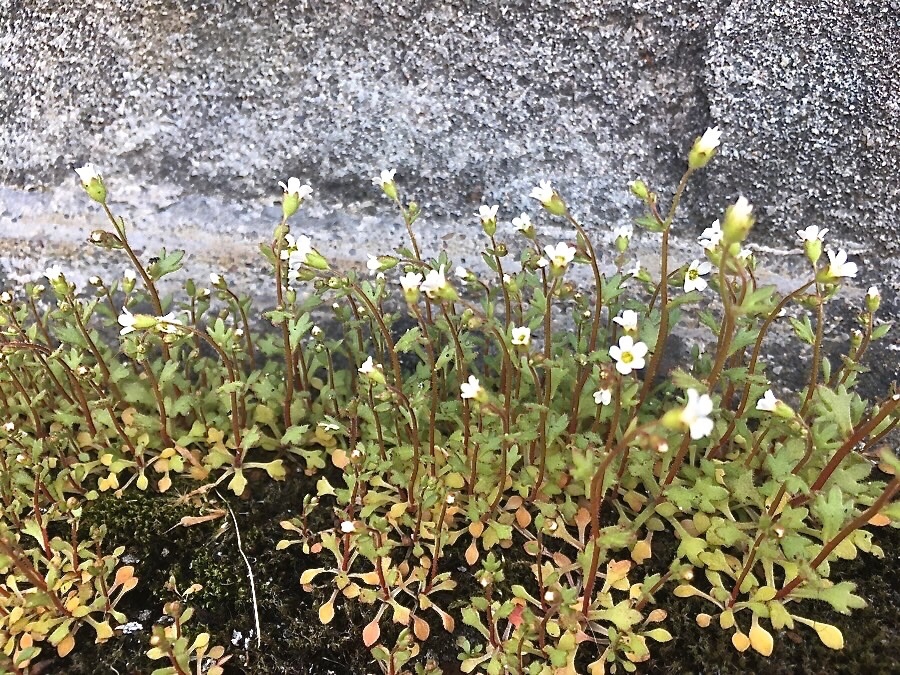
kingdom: Plantae
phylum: Tracheophyta
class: Magnoliopsida
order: Saxifragales
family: Saxifragaceae
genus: Saxifraga
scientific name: Saxifraga tridactylites
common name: Rue-leaved saxifrage
